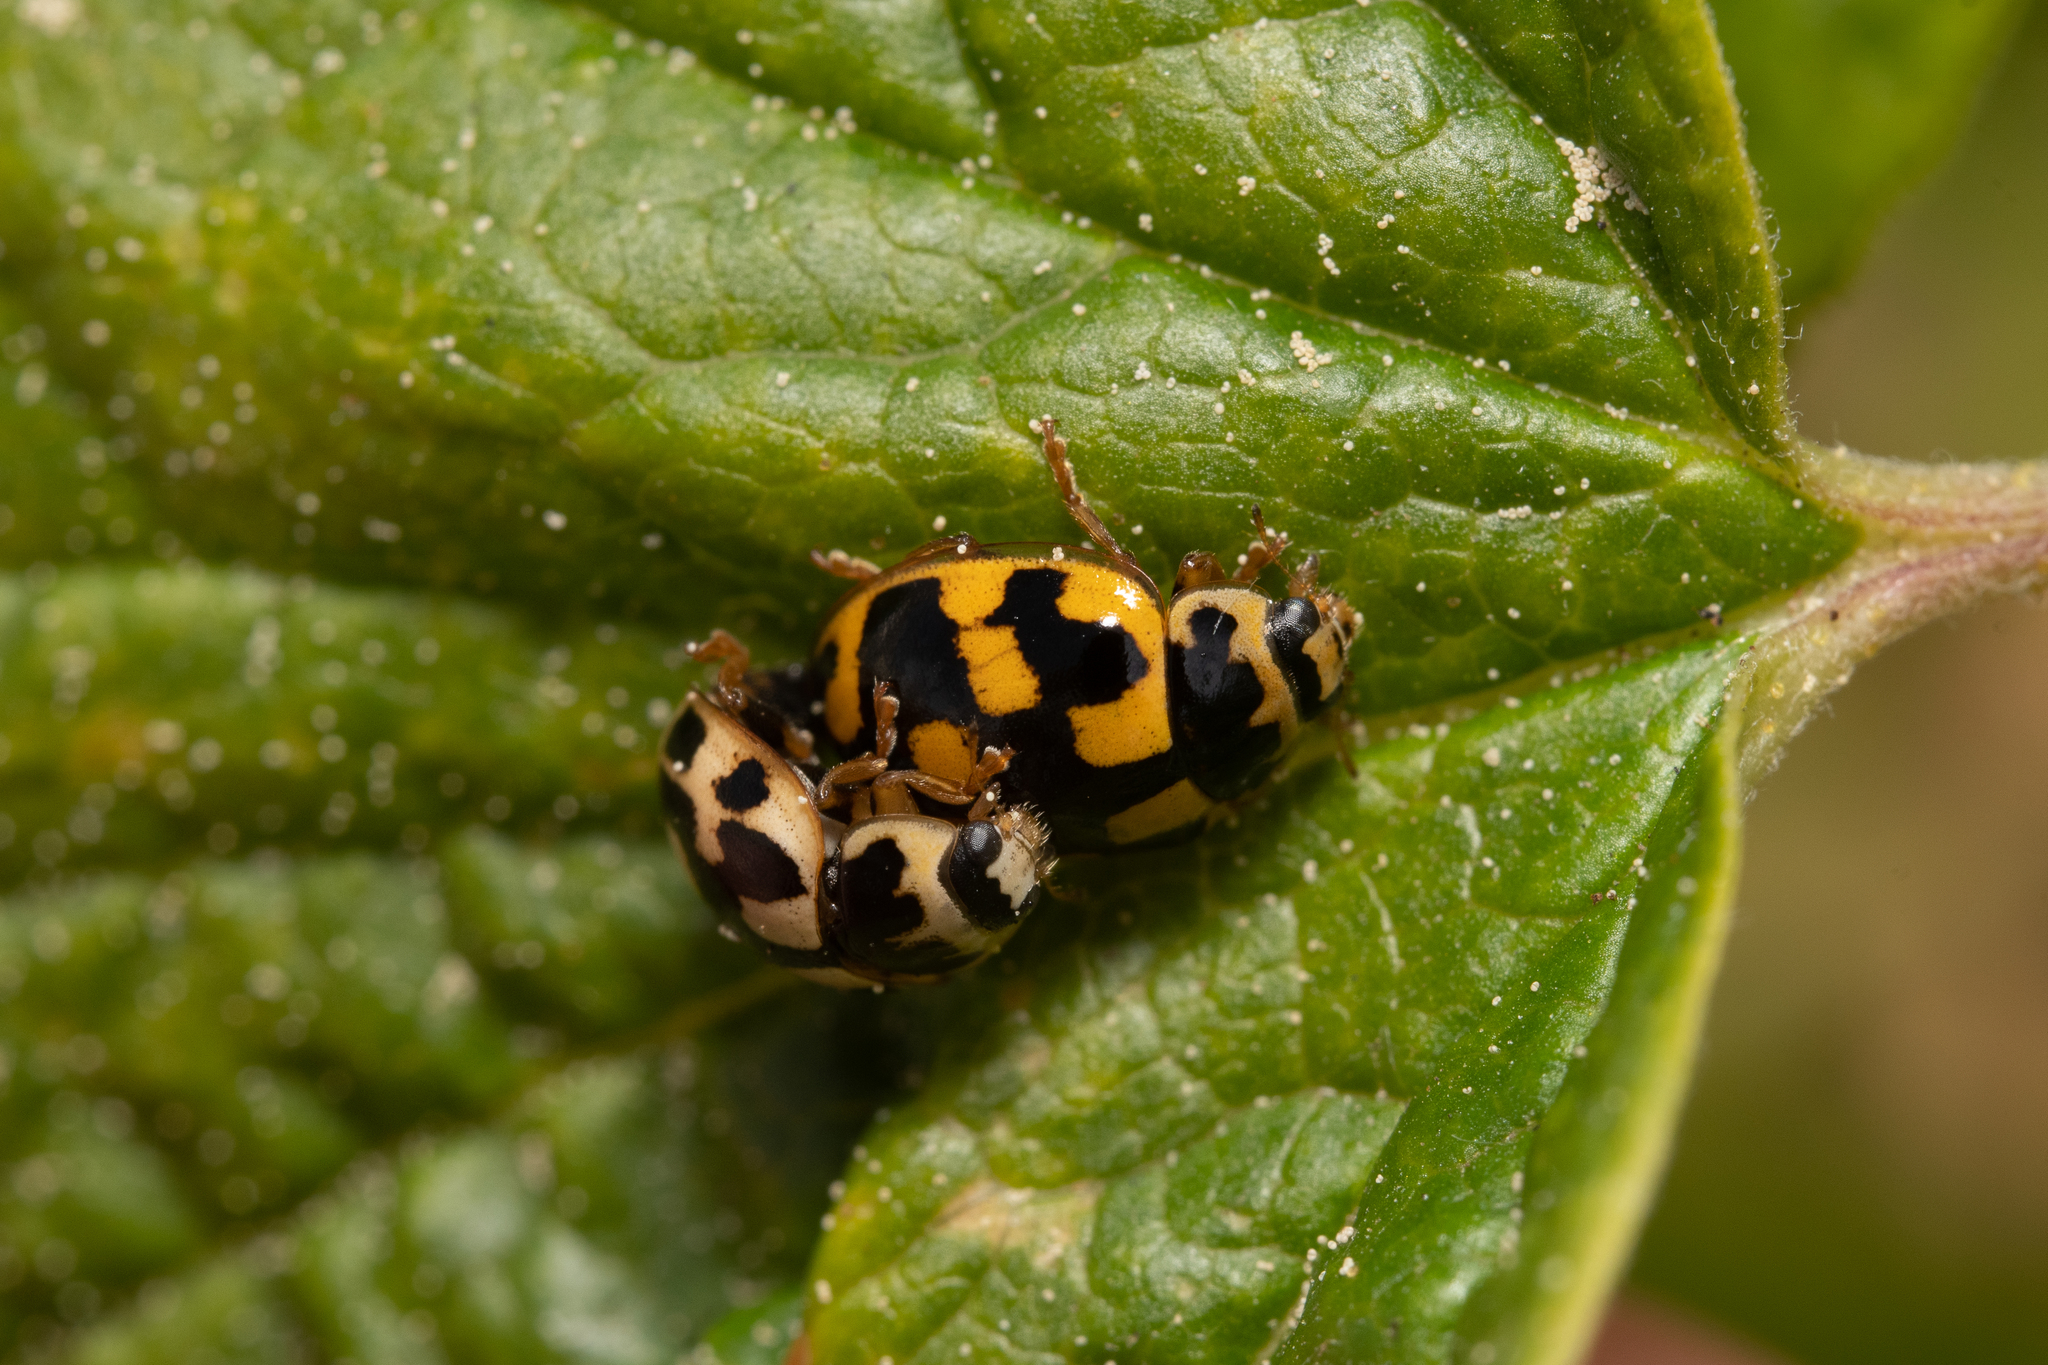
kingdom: Animalia
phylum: Arthropoda
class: Insecta
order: Coleoptera
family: Coccinellidae
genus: Propylaea
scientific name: Propylaea quatuordecimpunctata
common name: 14-spotted ladybird beetle
